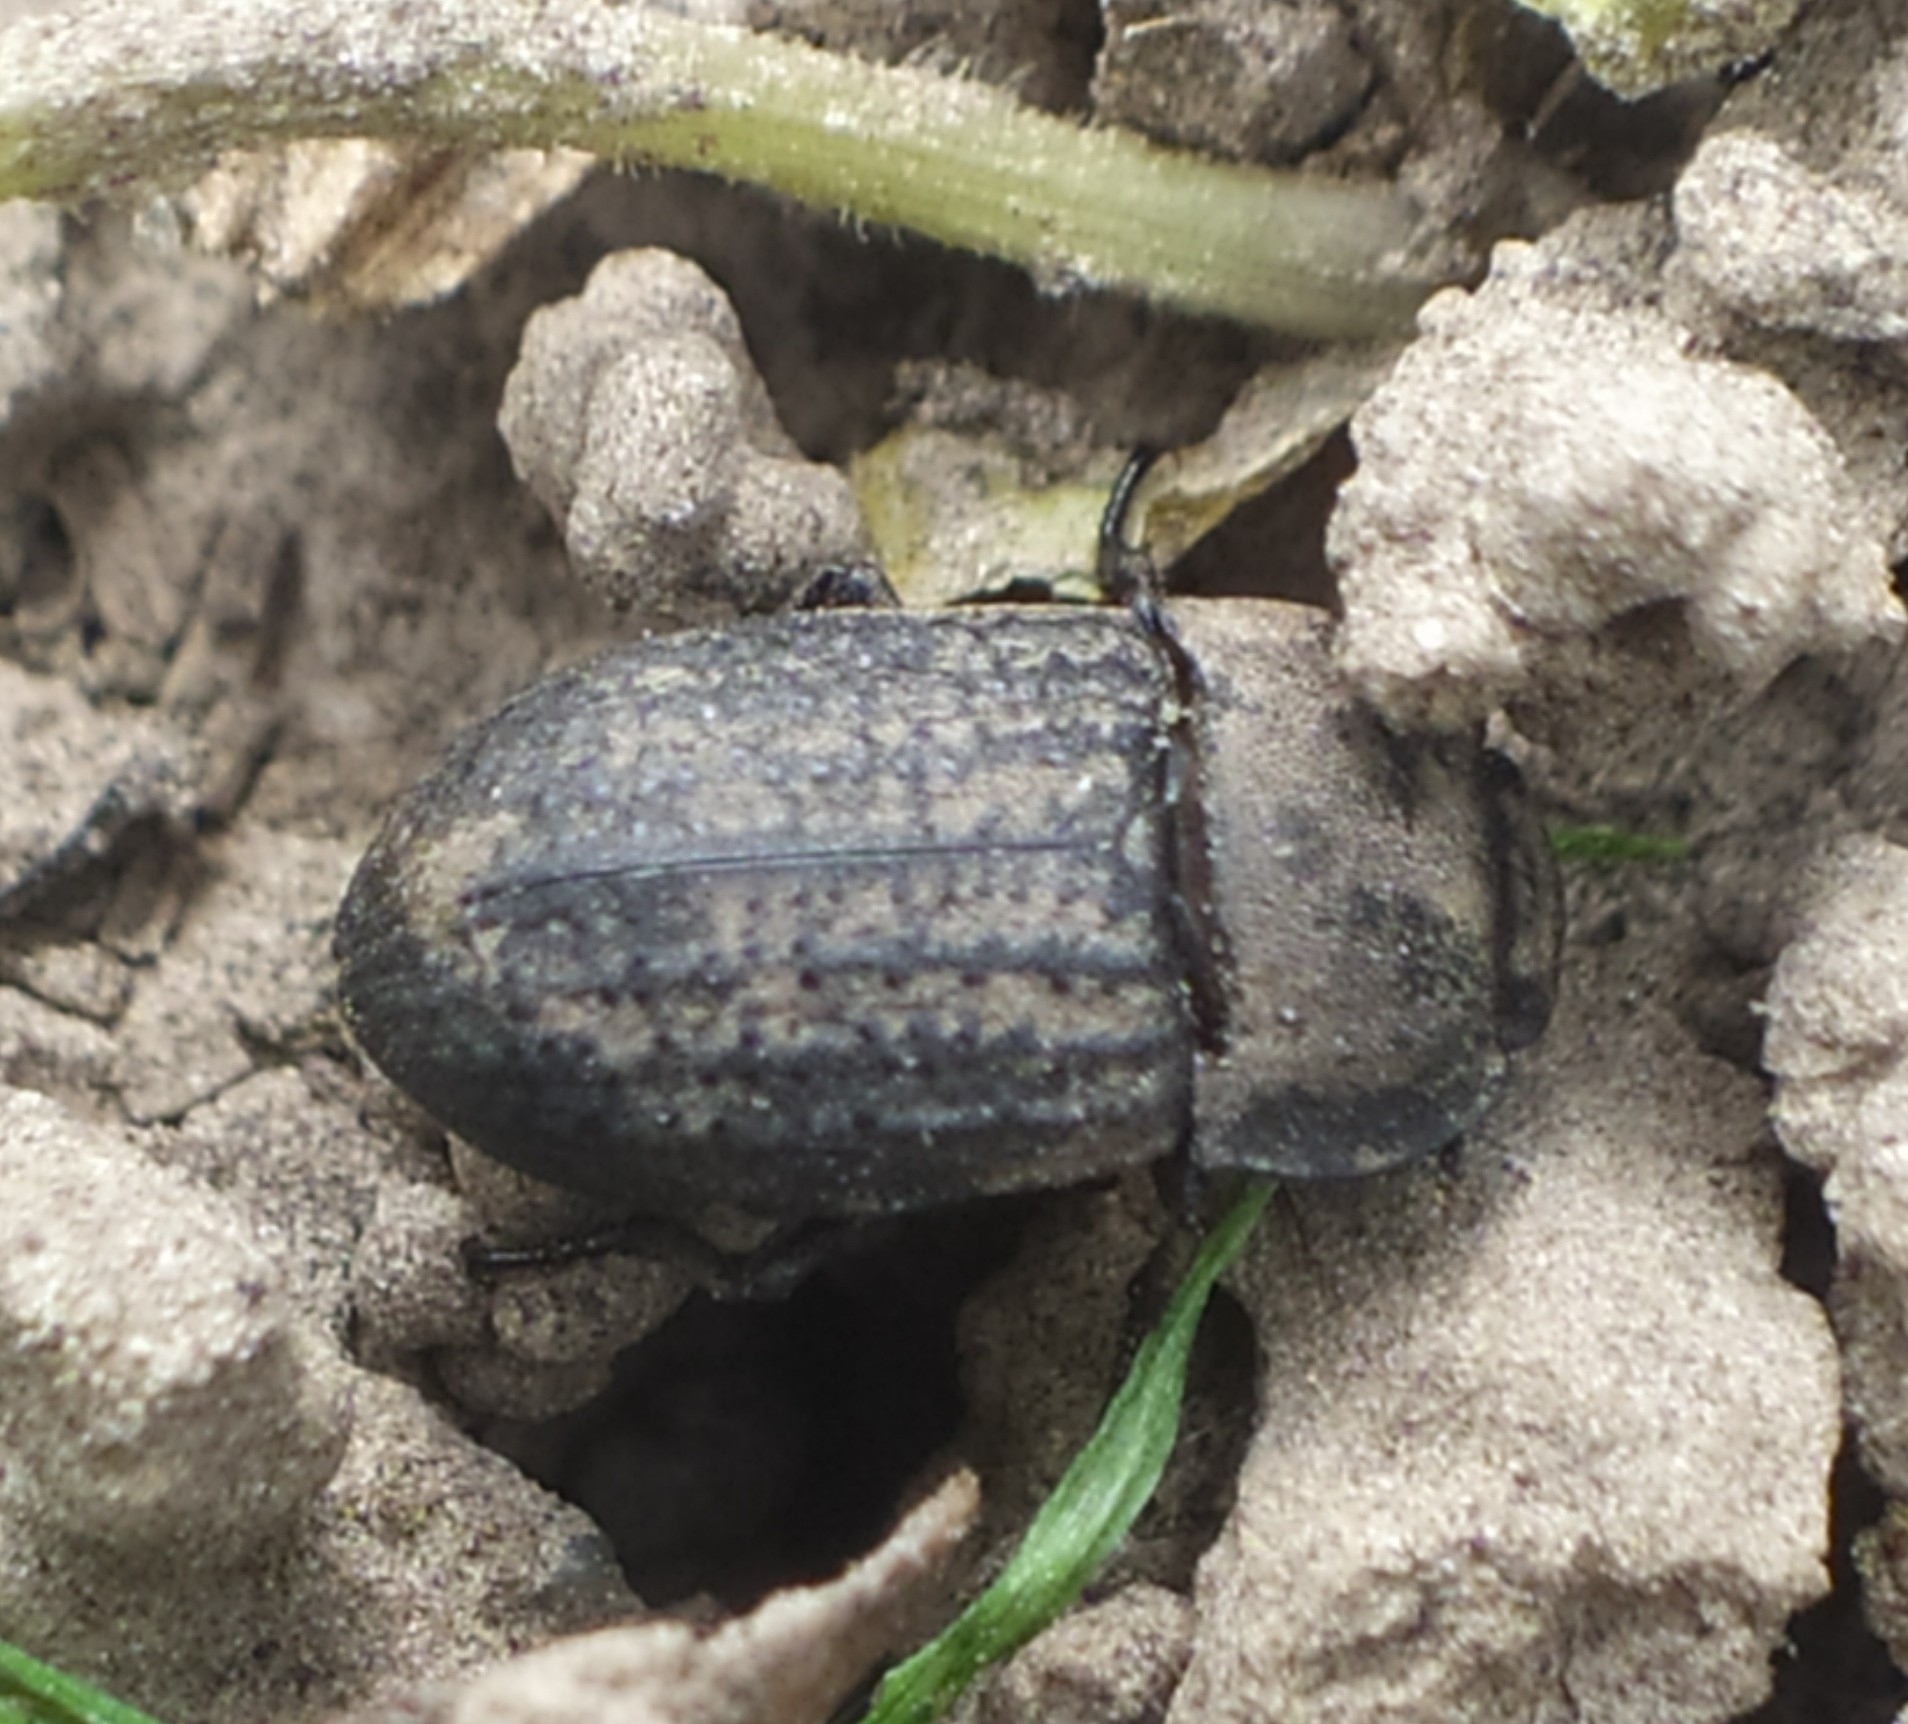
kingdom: Animalia
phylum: Arthropoda
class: Insecta
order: Coleoptera
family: Tenebrionidae
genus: Opatrum
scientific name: Opatrum sabulosum
